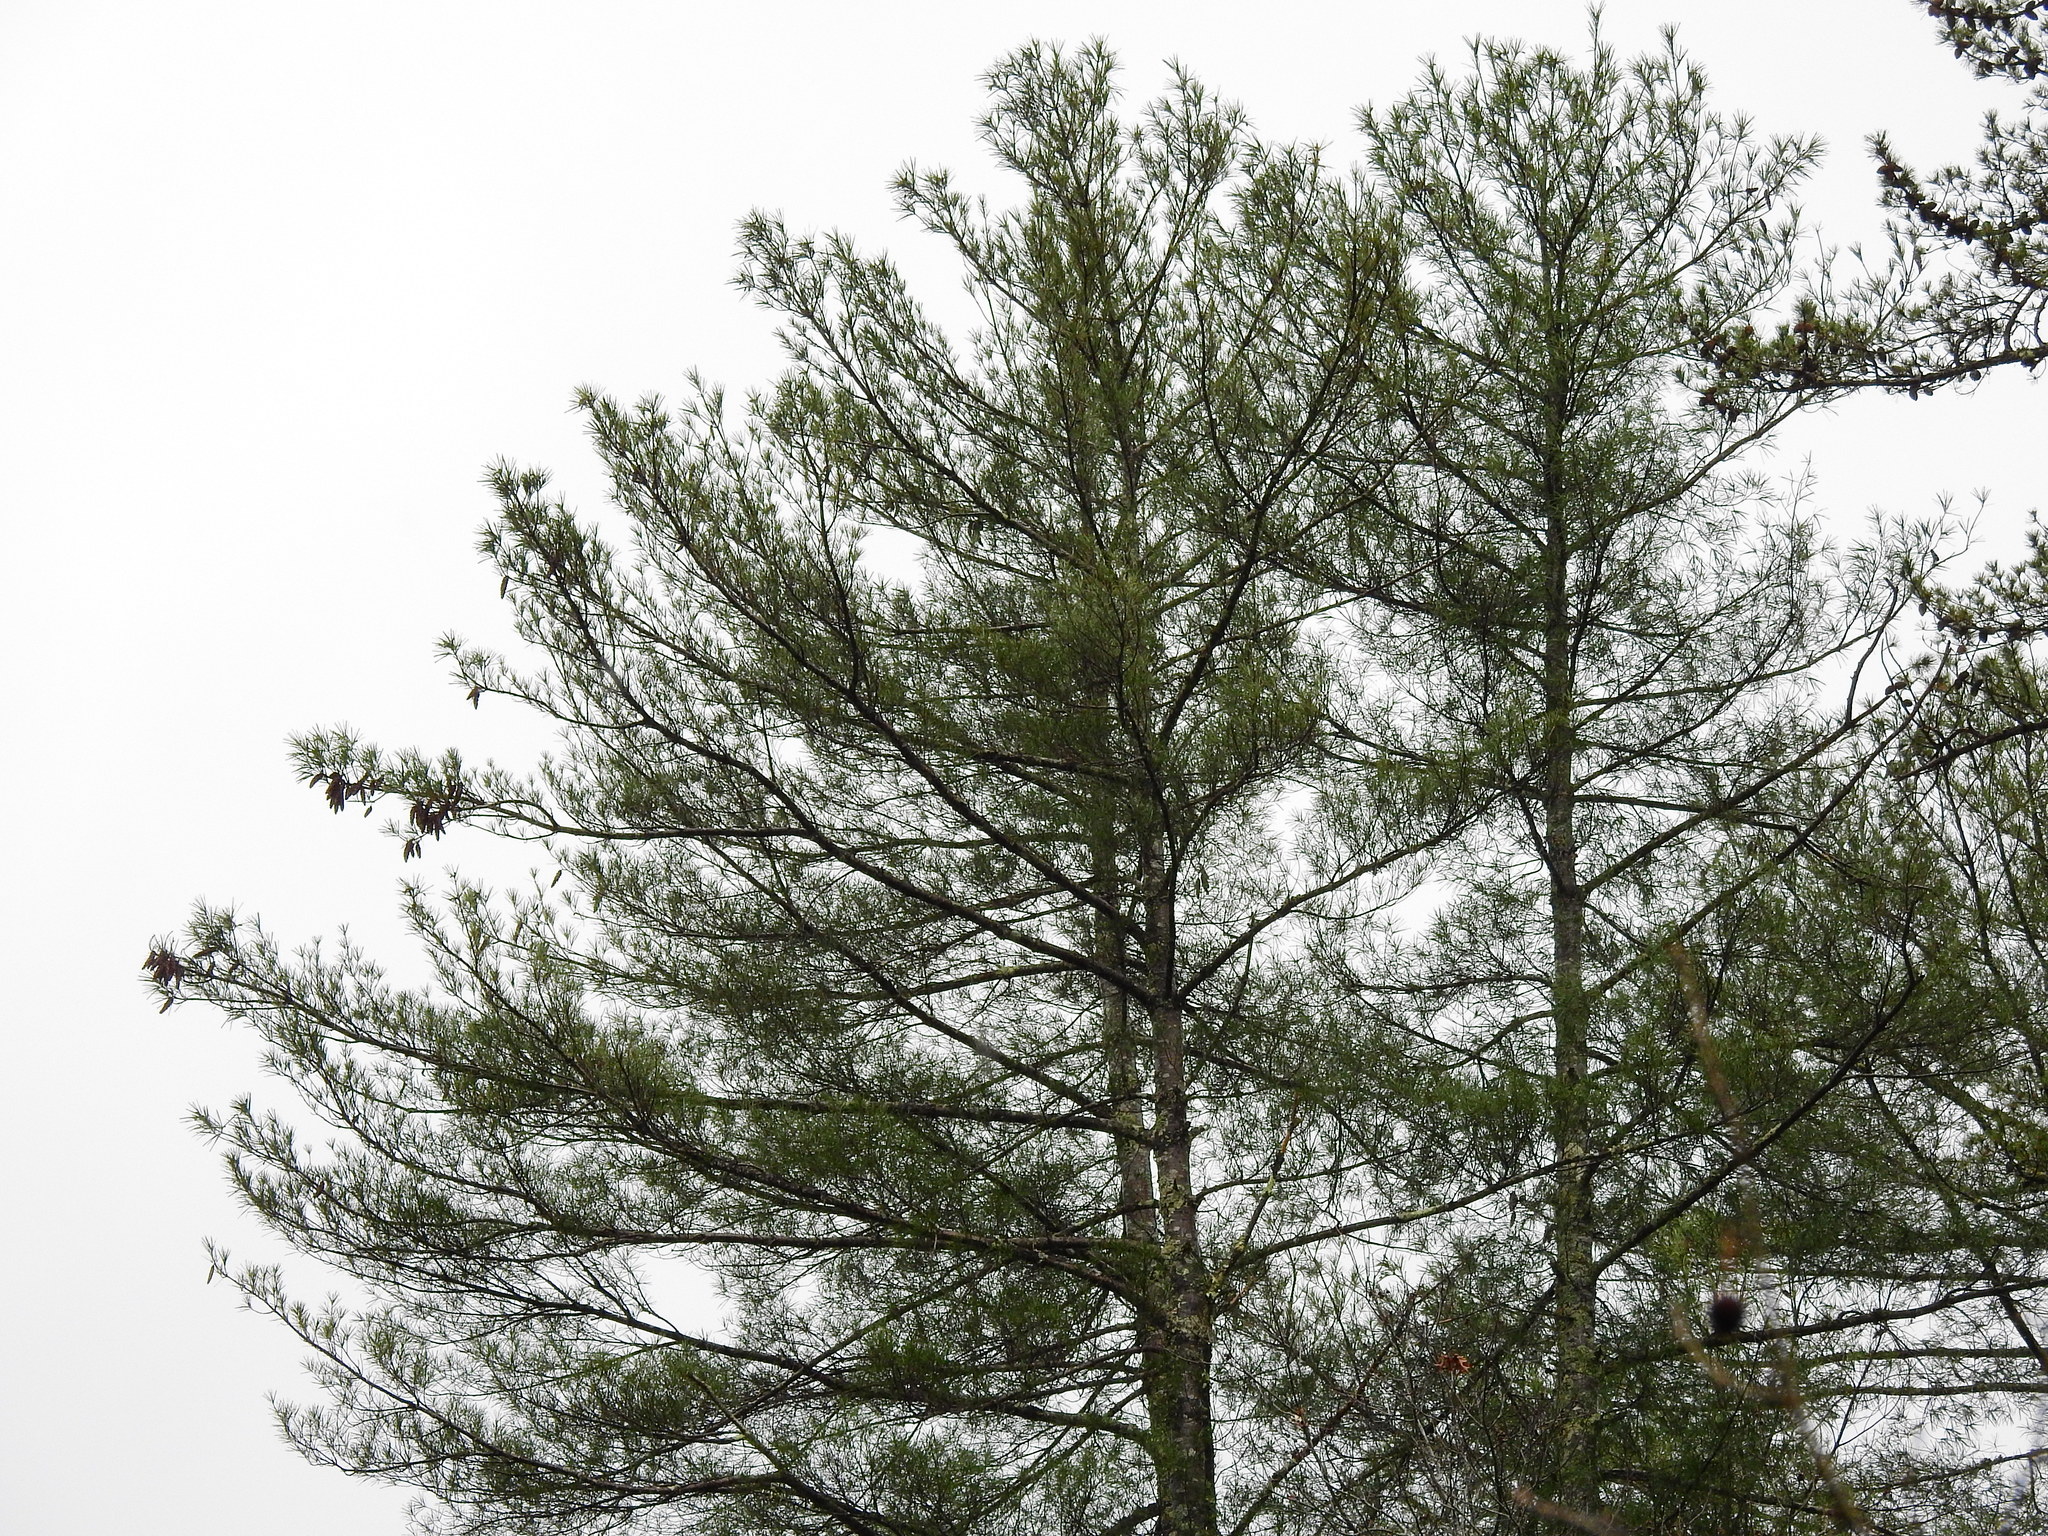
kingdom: Plantae
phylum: Tracheophyta
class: Pinopsida
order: Pinales
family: Pinaceae
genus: Pinus
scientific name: Pinus strobus
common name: Weymouth pine
